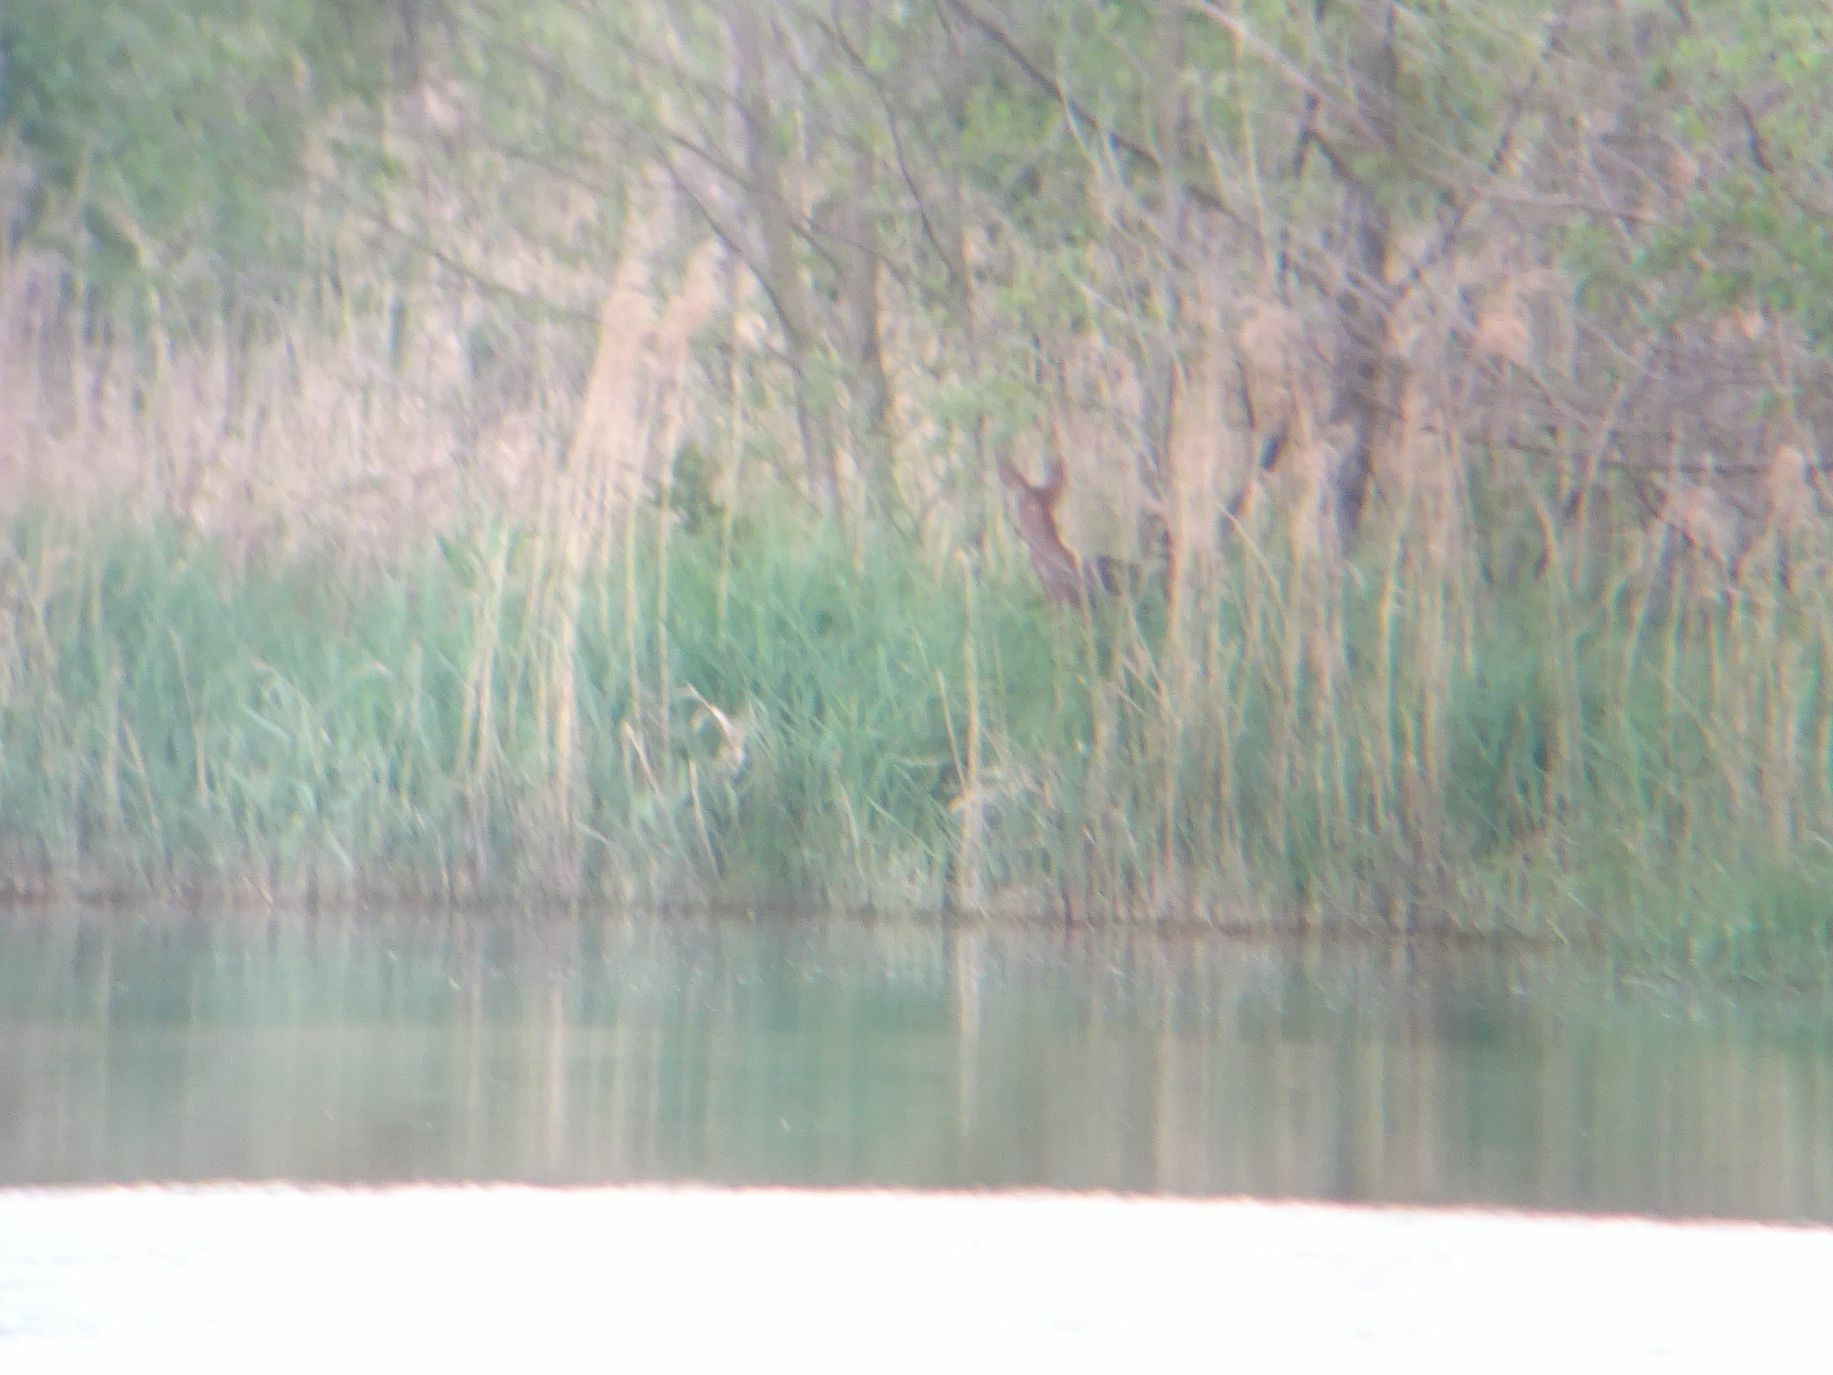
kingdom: Animalia
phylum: Chordata
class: Mammalia
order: Artiodactyla
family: Cervidae
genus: Capreolus
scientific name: Capreolus capreolus
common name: Western roe deer
